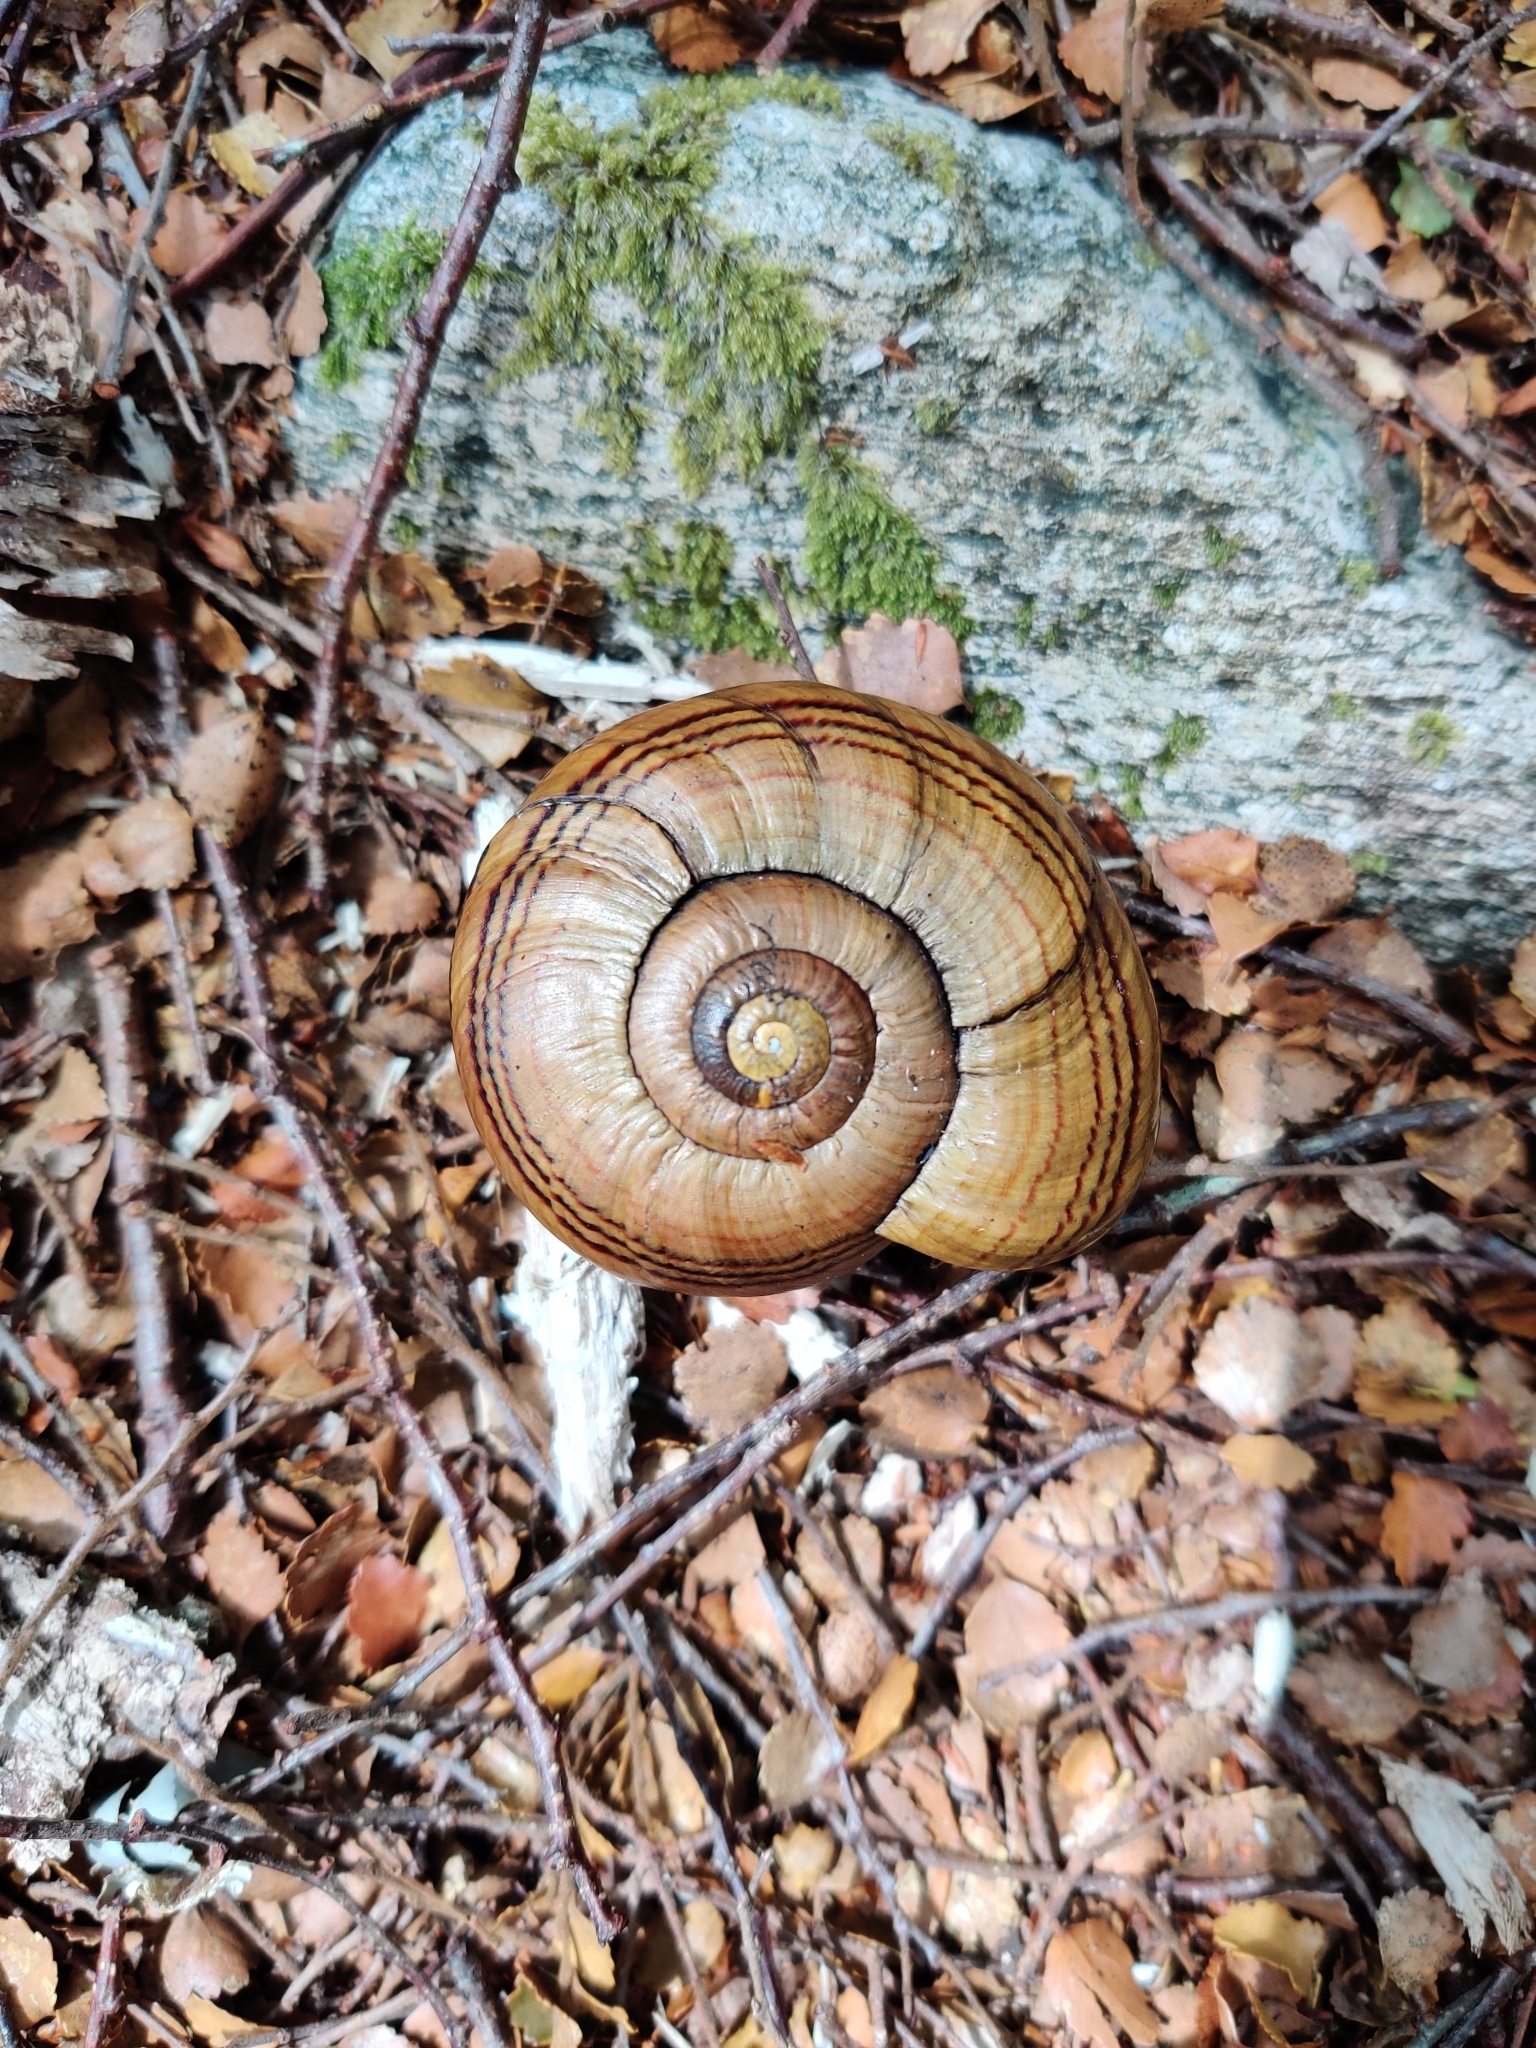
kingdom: Animalia
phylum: Mollusca
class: Gastropoda
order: Stylommatophora
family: Rhytididae
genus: Powelliphanta
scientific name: Powelliphanta hochstetteri
